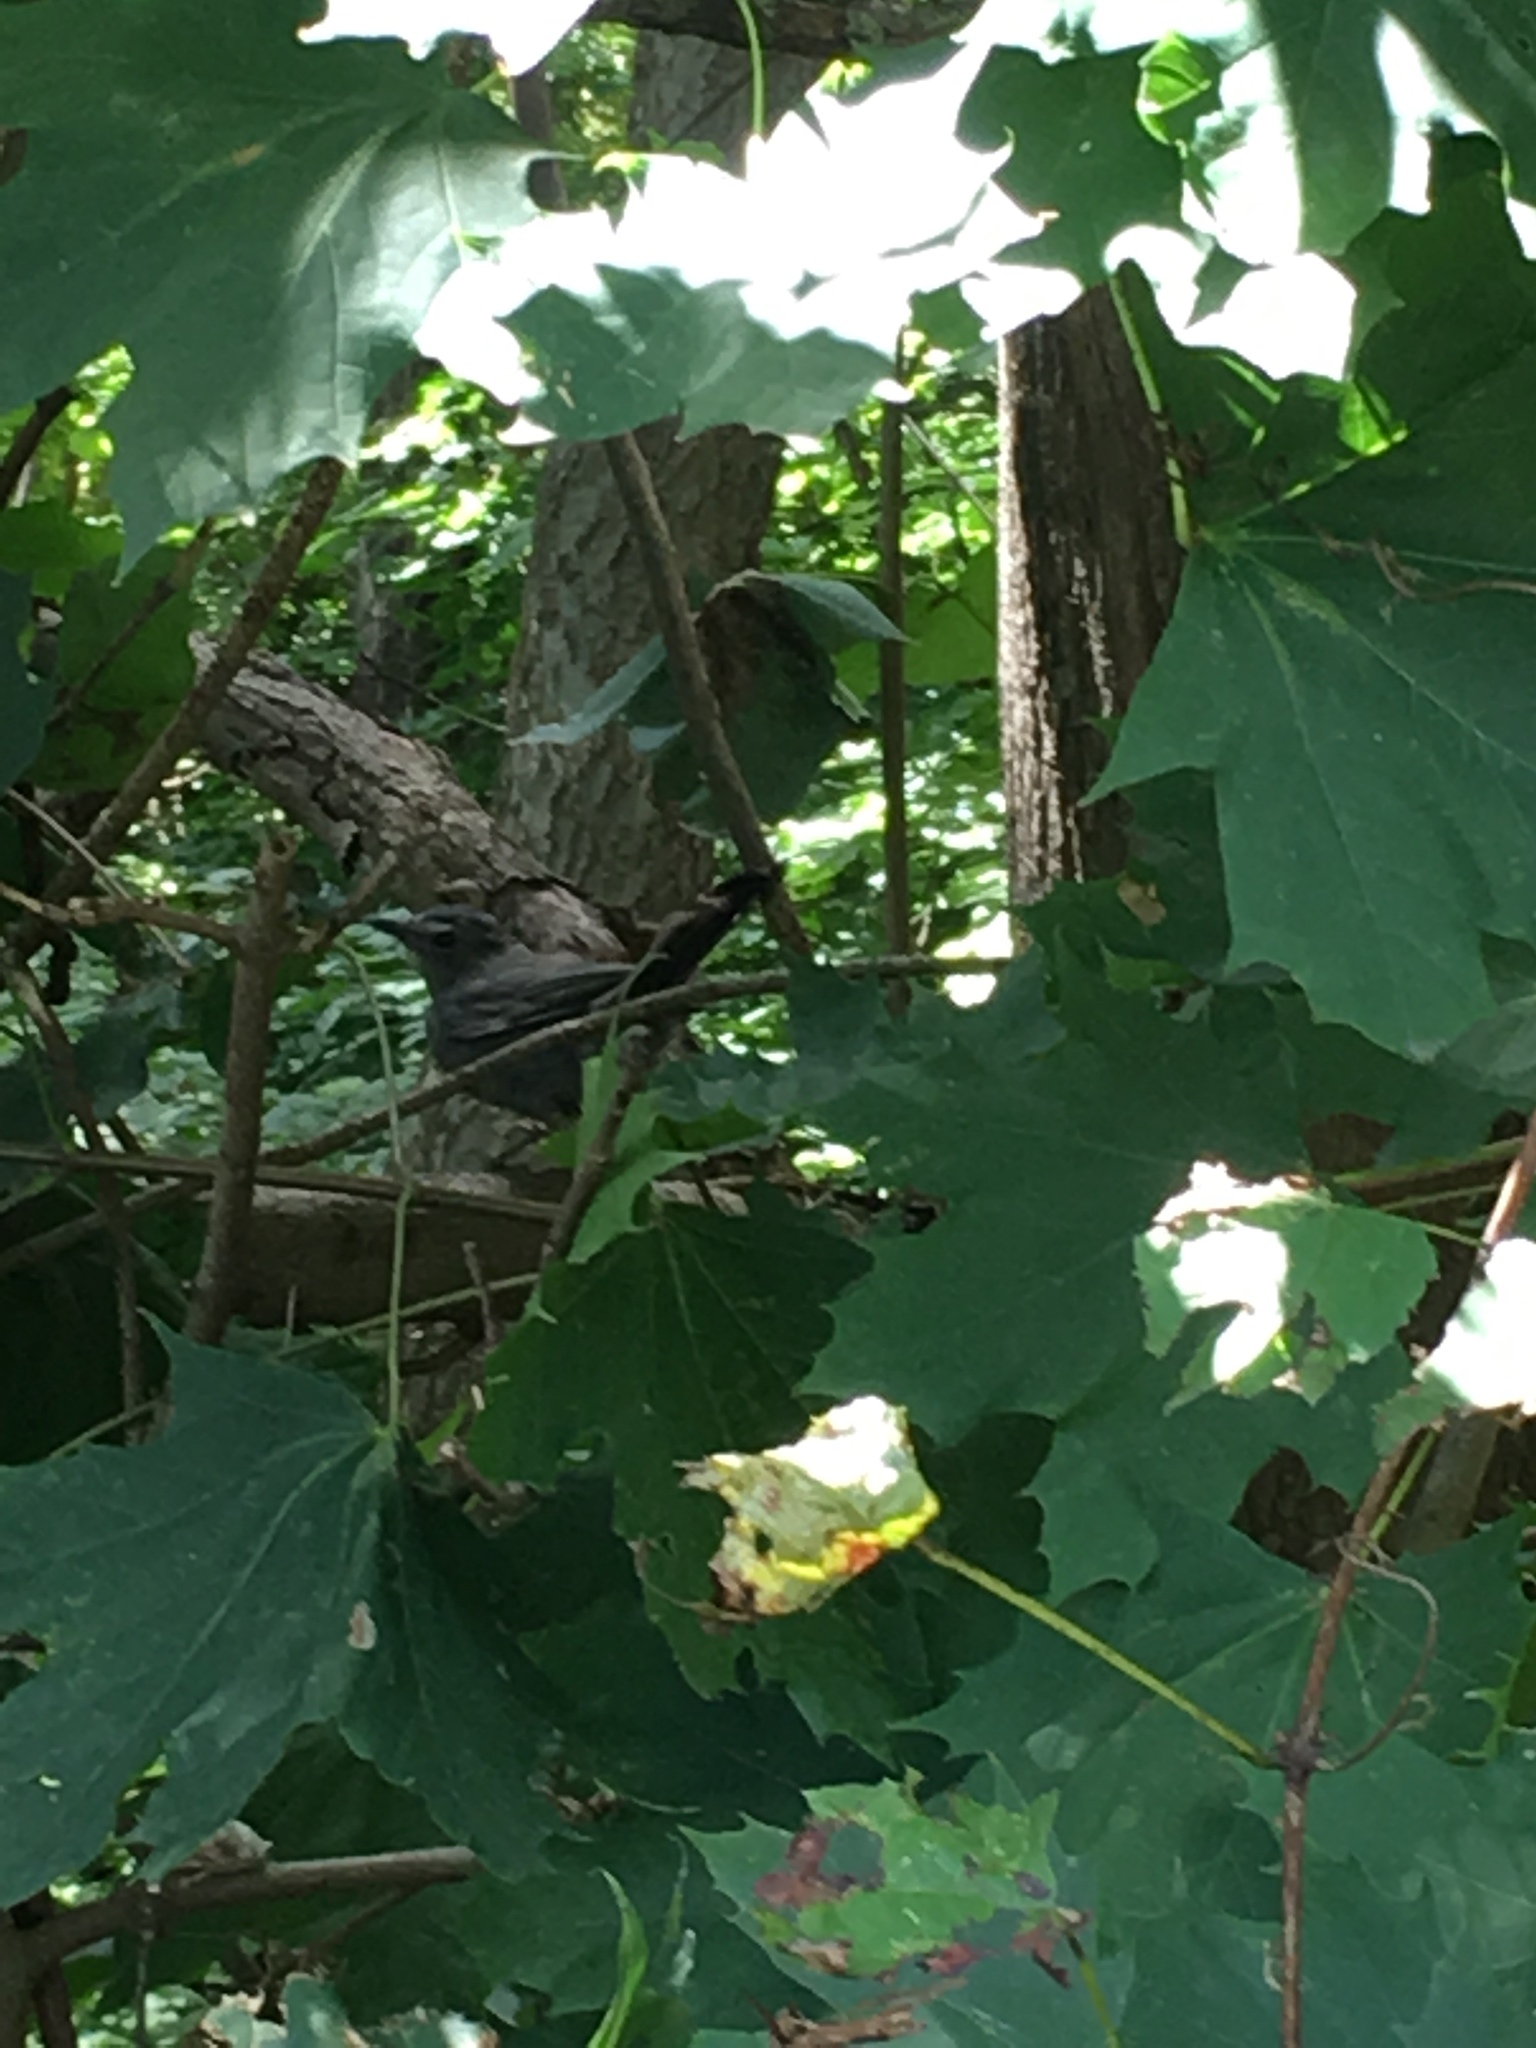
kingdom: Animalia
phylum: Chordata
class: Aves
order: Passeriformes
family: Mimidae
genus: Dumetella
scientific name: Dumetella carolinensis
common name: Gray catbird
